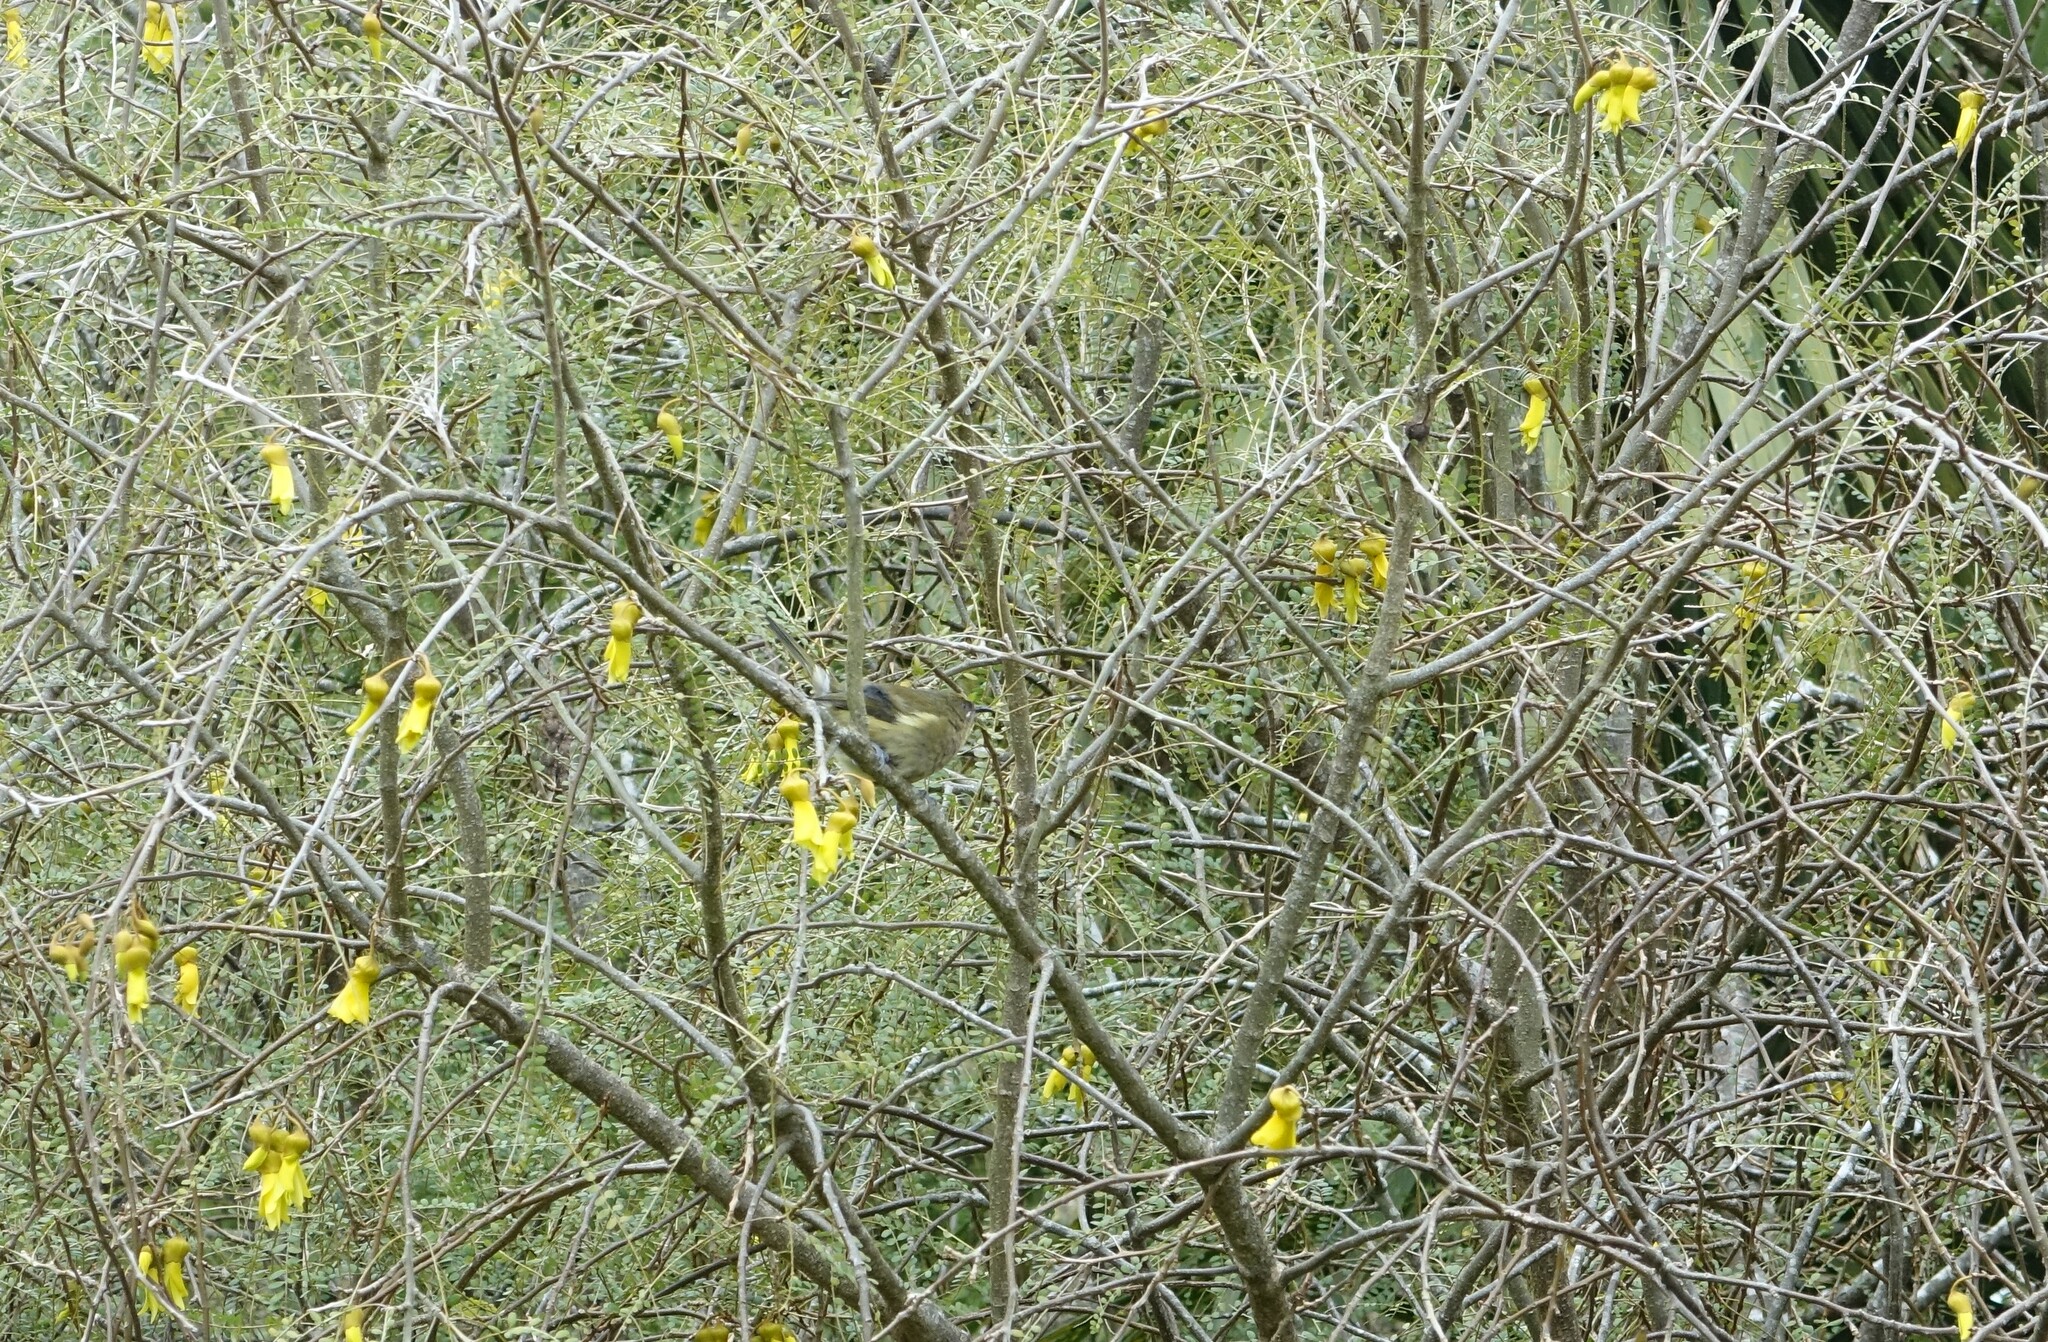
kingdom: Animalia
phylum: Chordata
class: Aves
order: Passeriformes
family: Meliphagidae
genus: Anthornis
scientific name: Anthornis melanura
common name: New zealand bellbird
